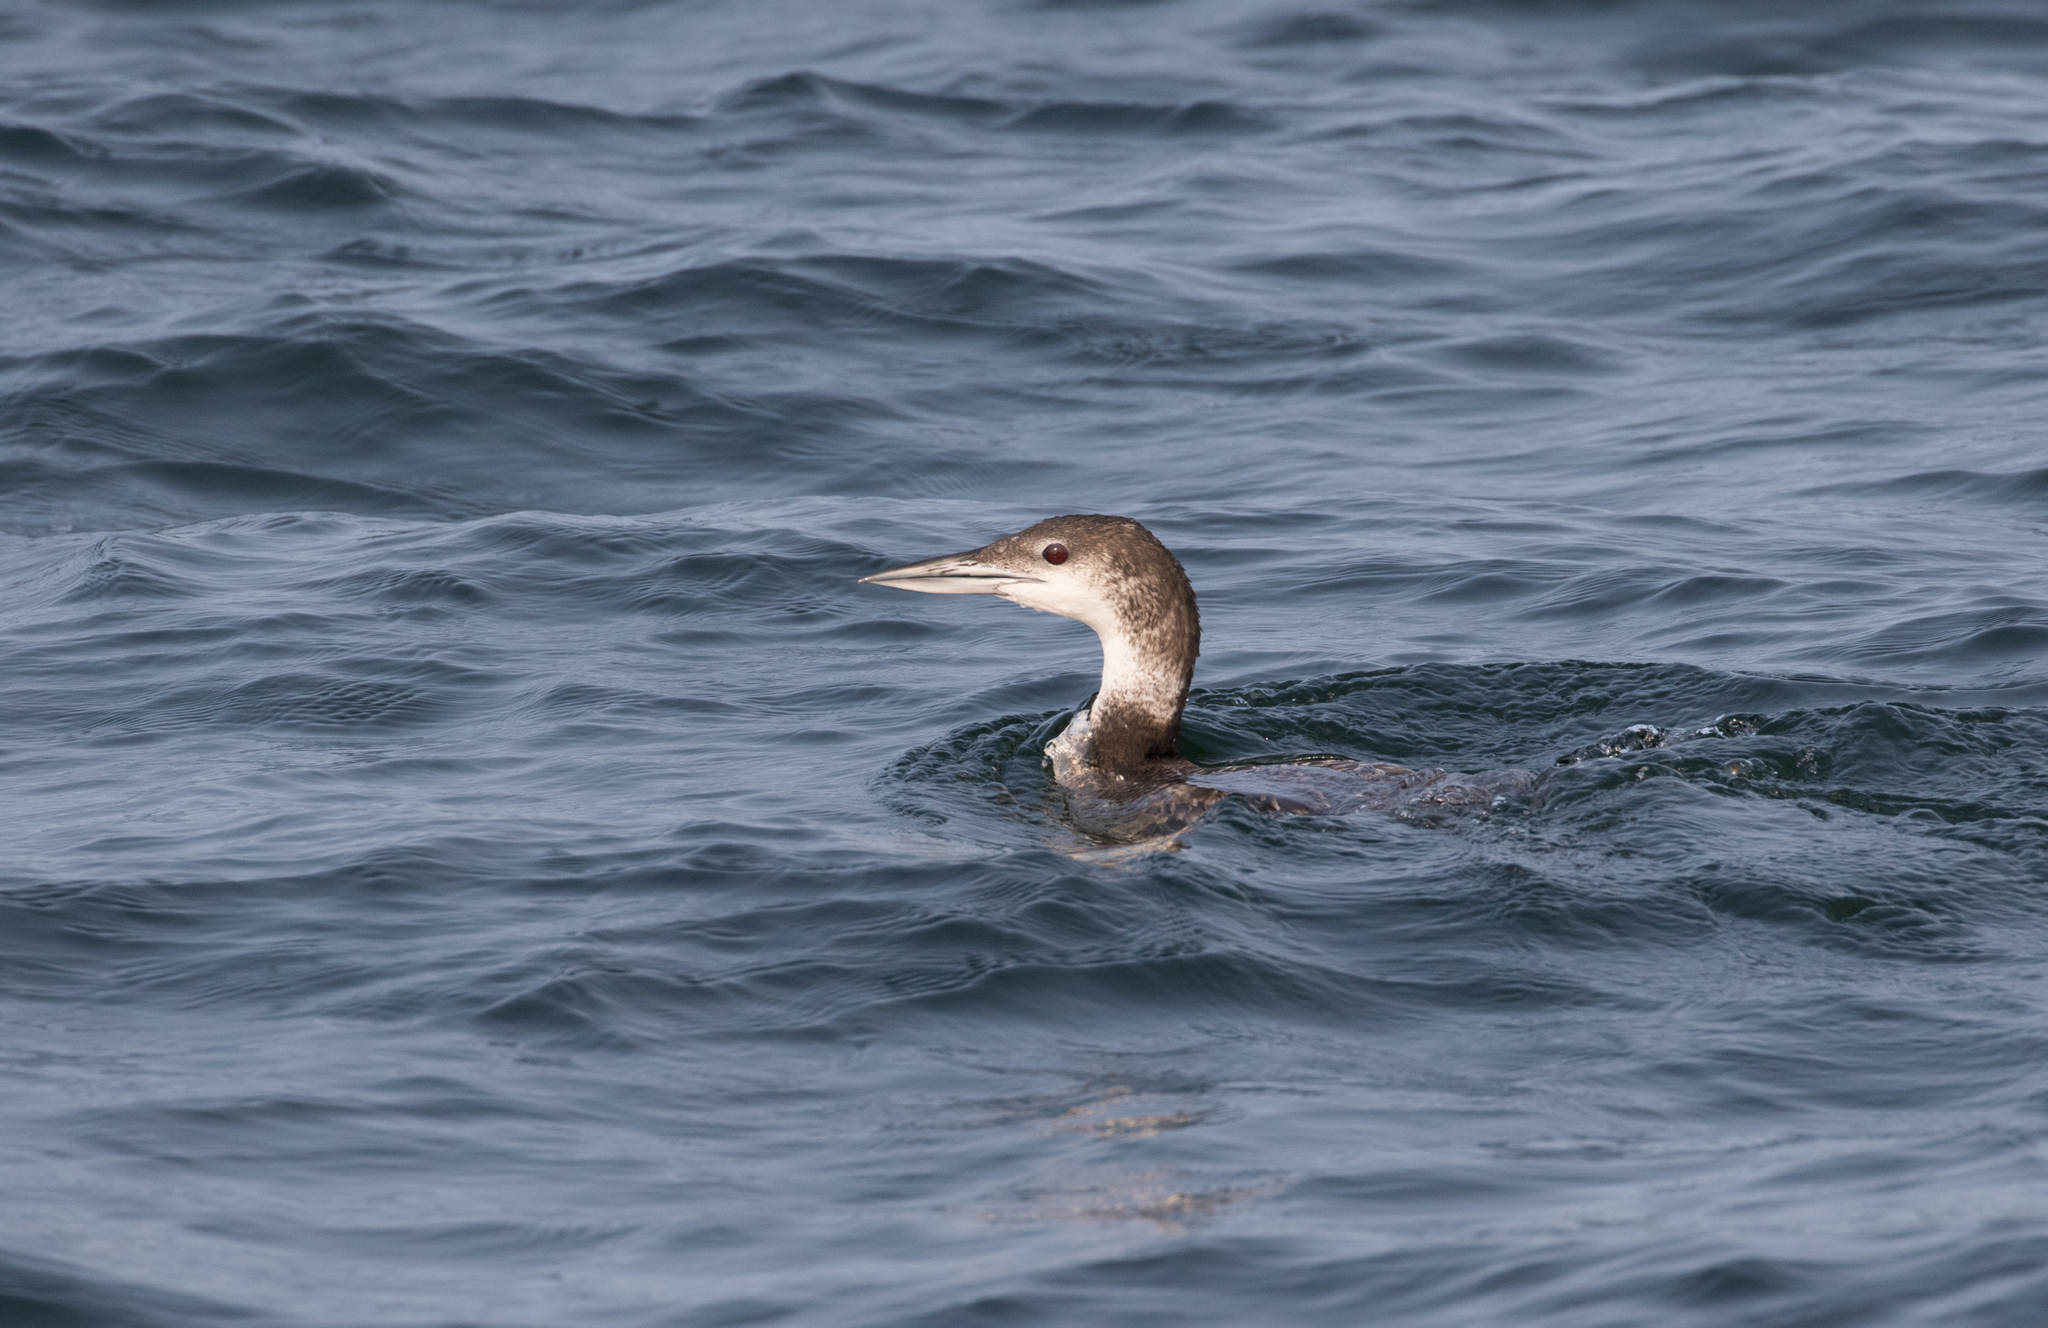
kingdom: Animalia
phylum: Chordata
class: Aves
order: Gaviiformes
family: Gaviidae
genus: Gavia
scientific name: Gavia immer
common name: Common loon
